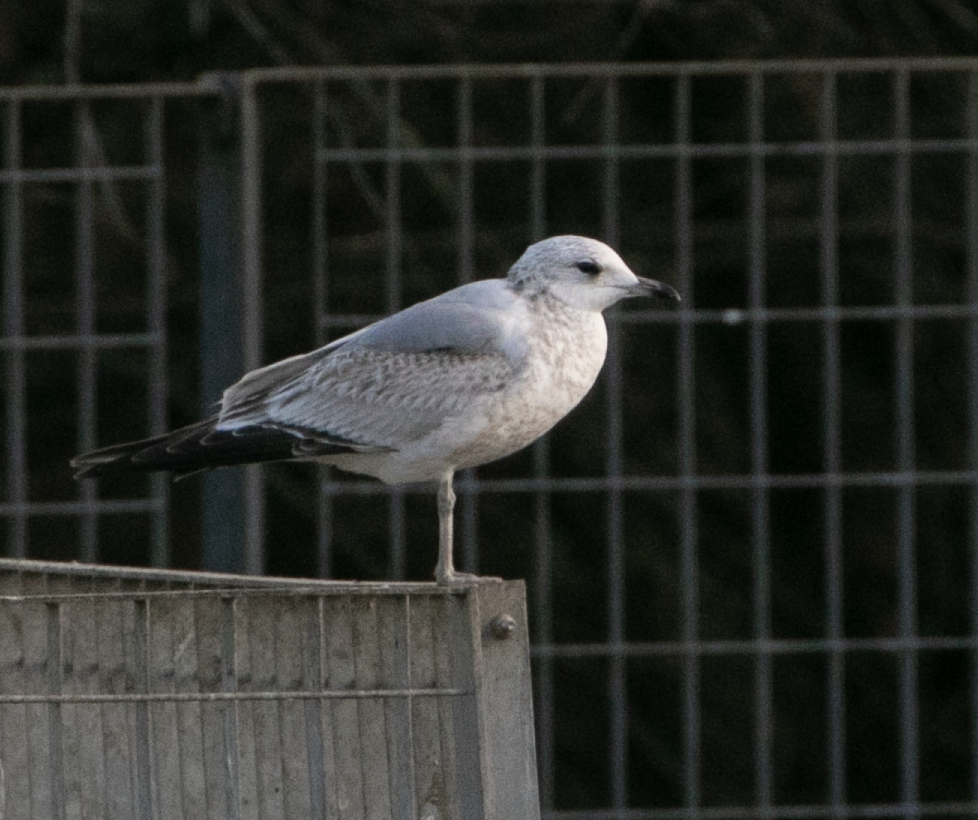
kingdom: Animalia
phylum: Chordata
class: Aves
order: Charadriiformes
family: Laridae
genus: Larus
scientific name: Larus canus
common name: Mew gull
